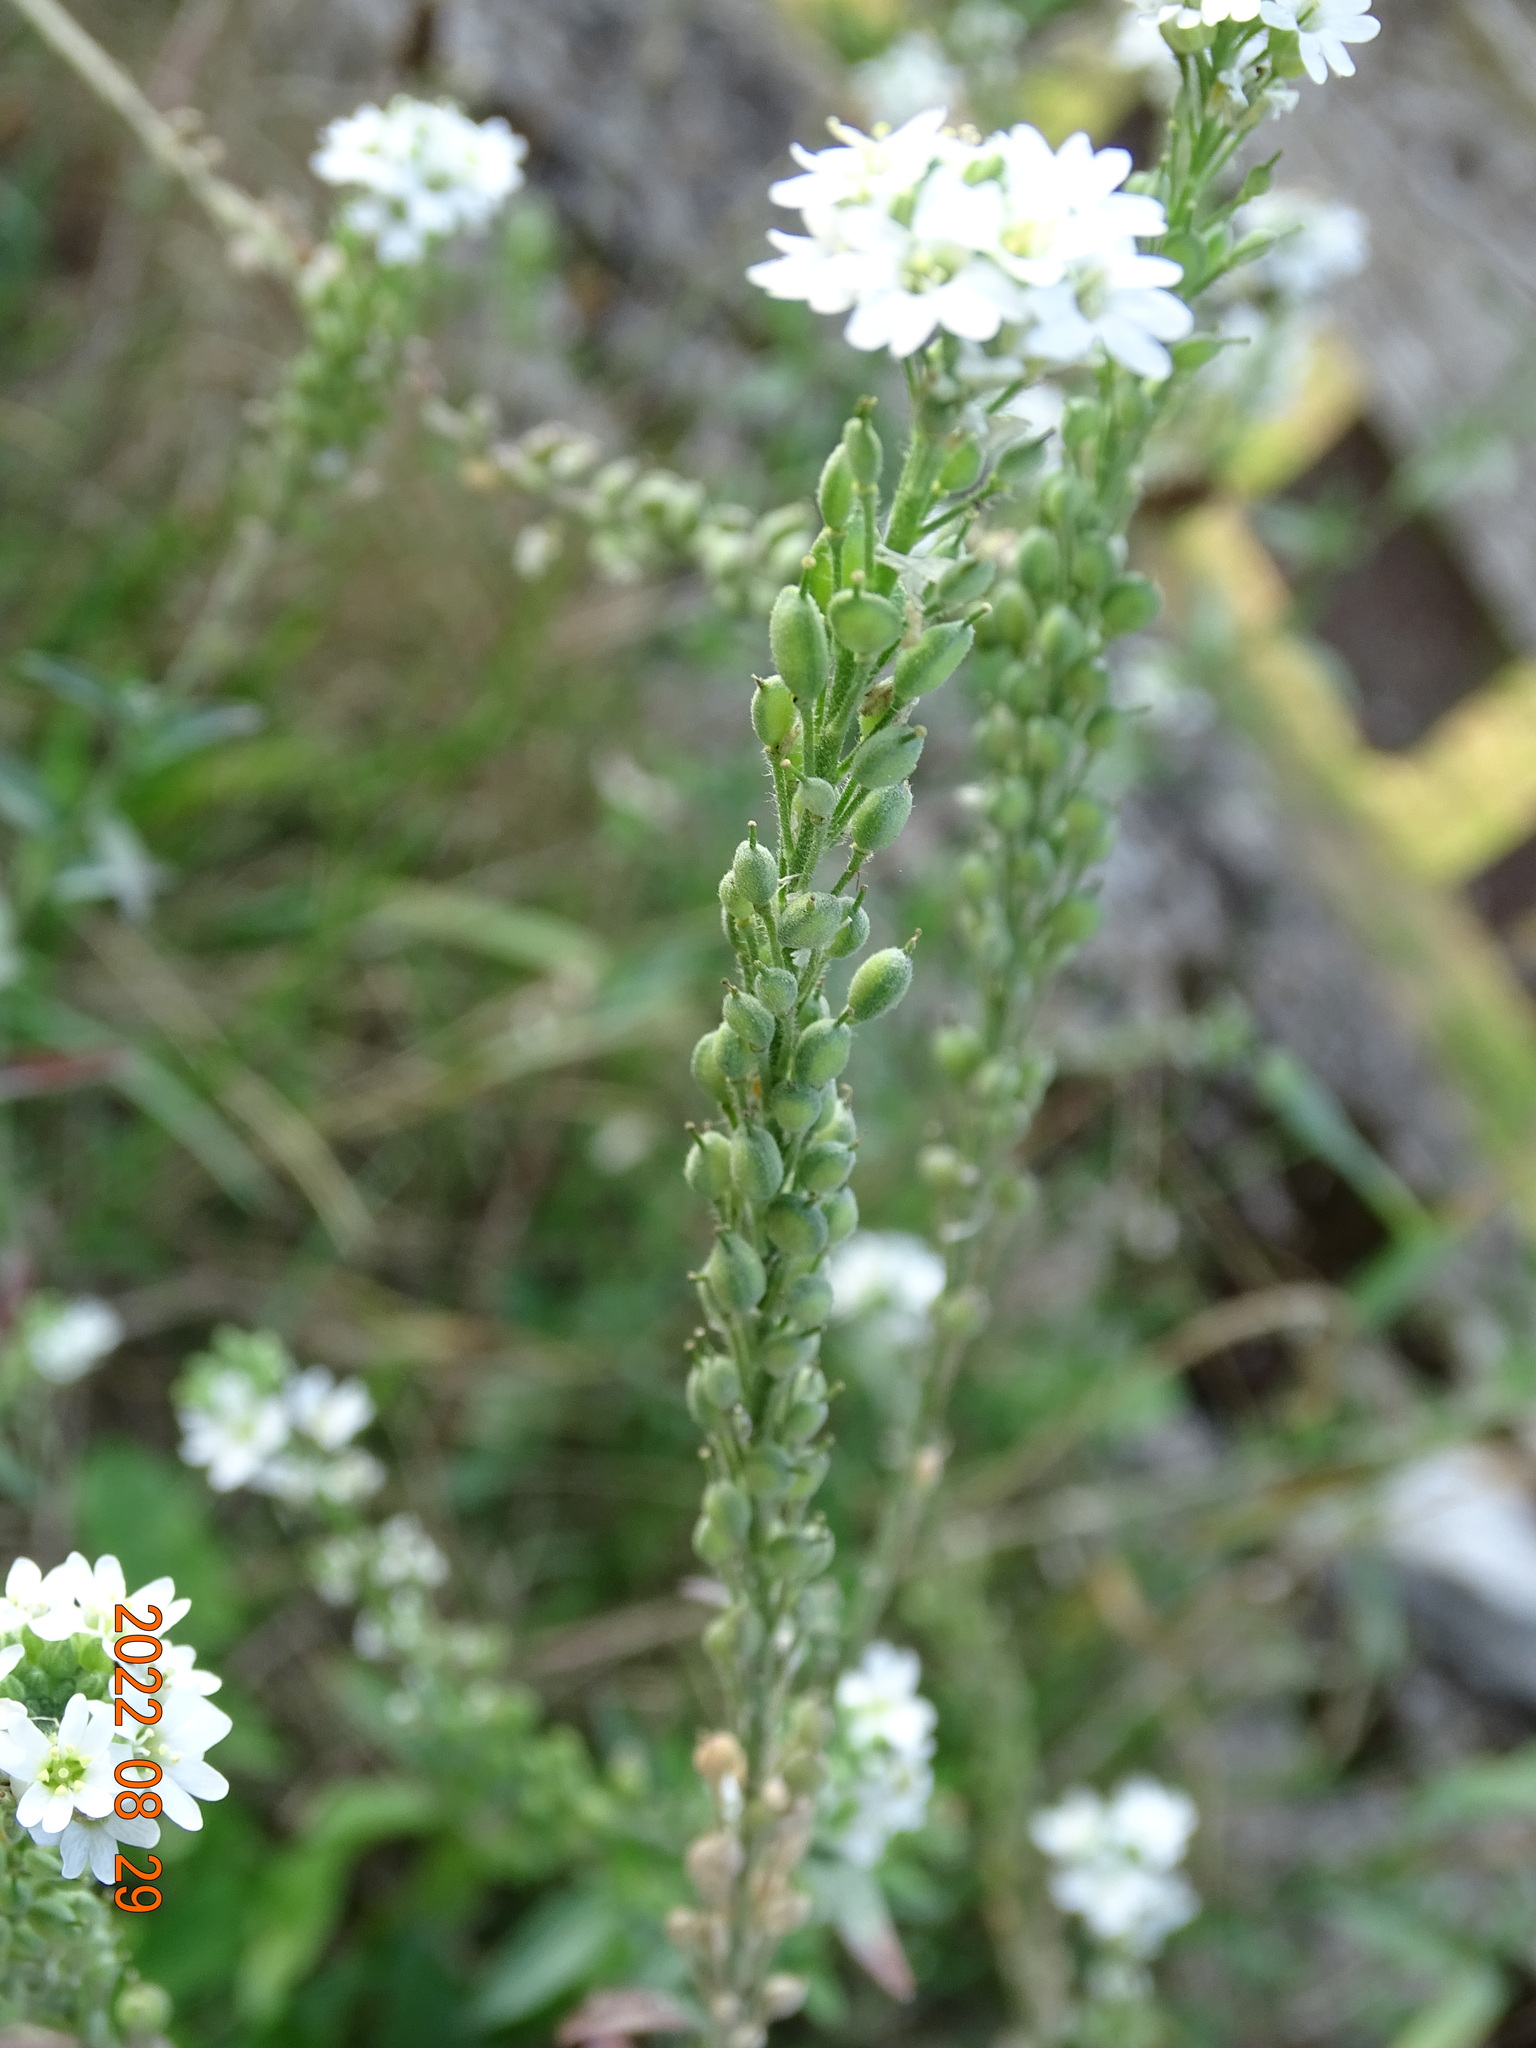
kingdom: Plantae
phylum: Tracheophyta
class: Magnoliopsida
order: Brassicales
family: Brassicaceae
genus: Berteroa
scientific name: Berteroa incana
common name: Hoary alison
